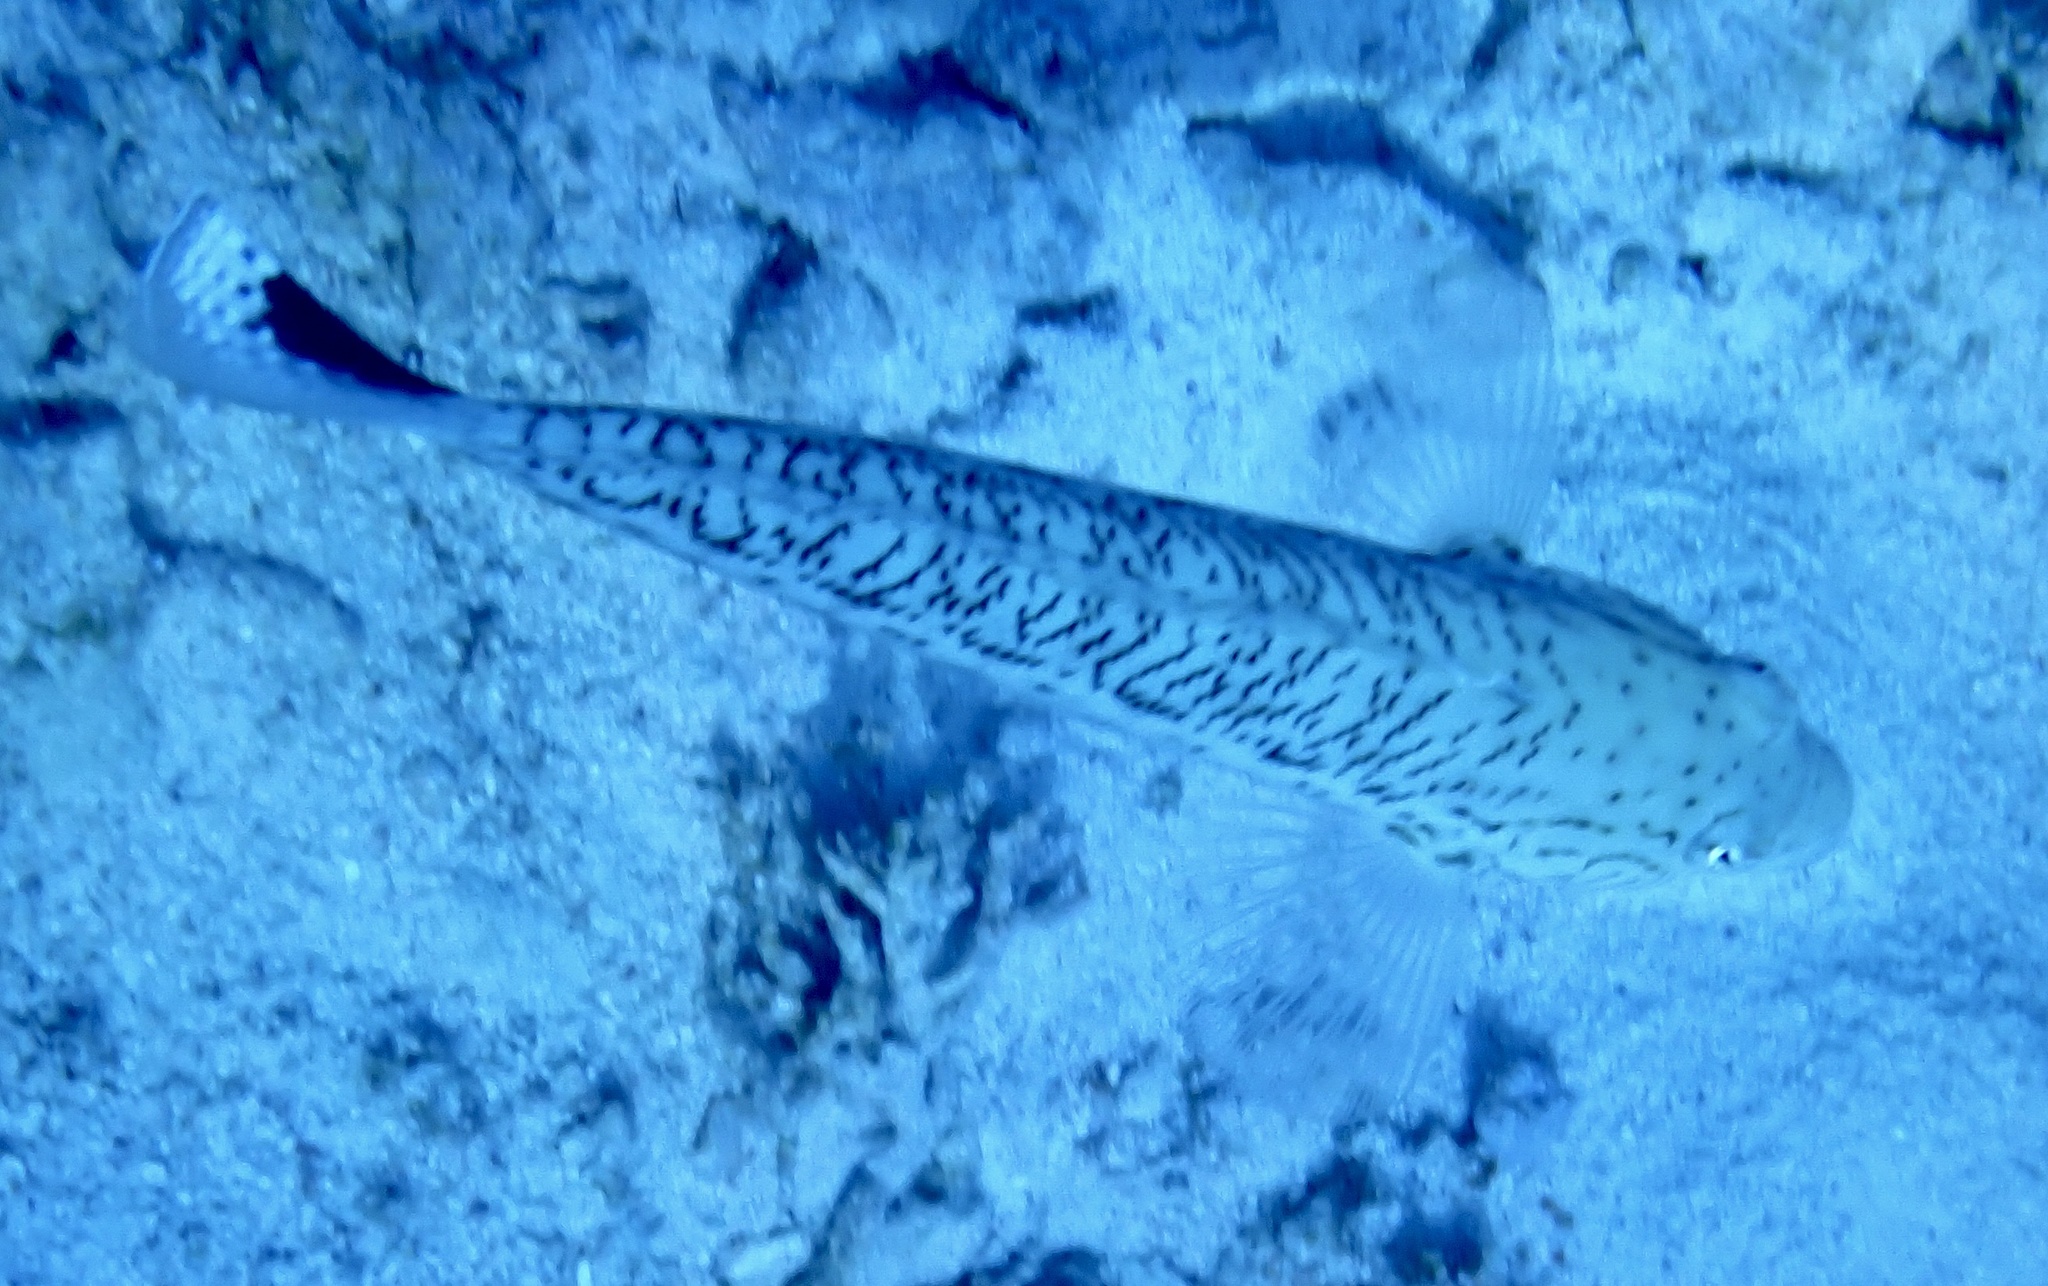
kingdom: Animalia
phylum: Chordata
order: Perciformes
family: Pinguipedidae
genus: Parapercis
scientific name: Parapercis hexophtalma
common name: Speckled sandperch
